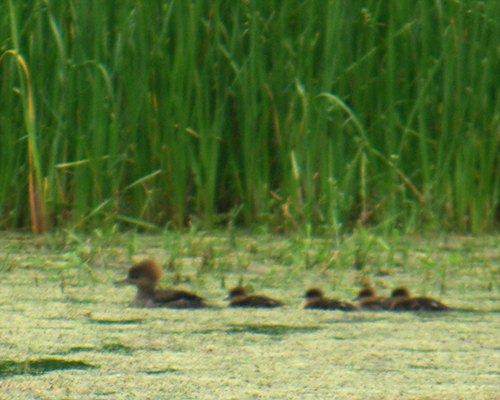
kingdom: Animalia
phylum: Chordata
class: Aves
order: Anseriformes
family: Anatidae
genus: Lophodytes
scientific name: Lophodytes cucullatus
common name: Hooded merganser
